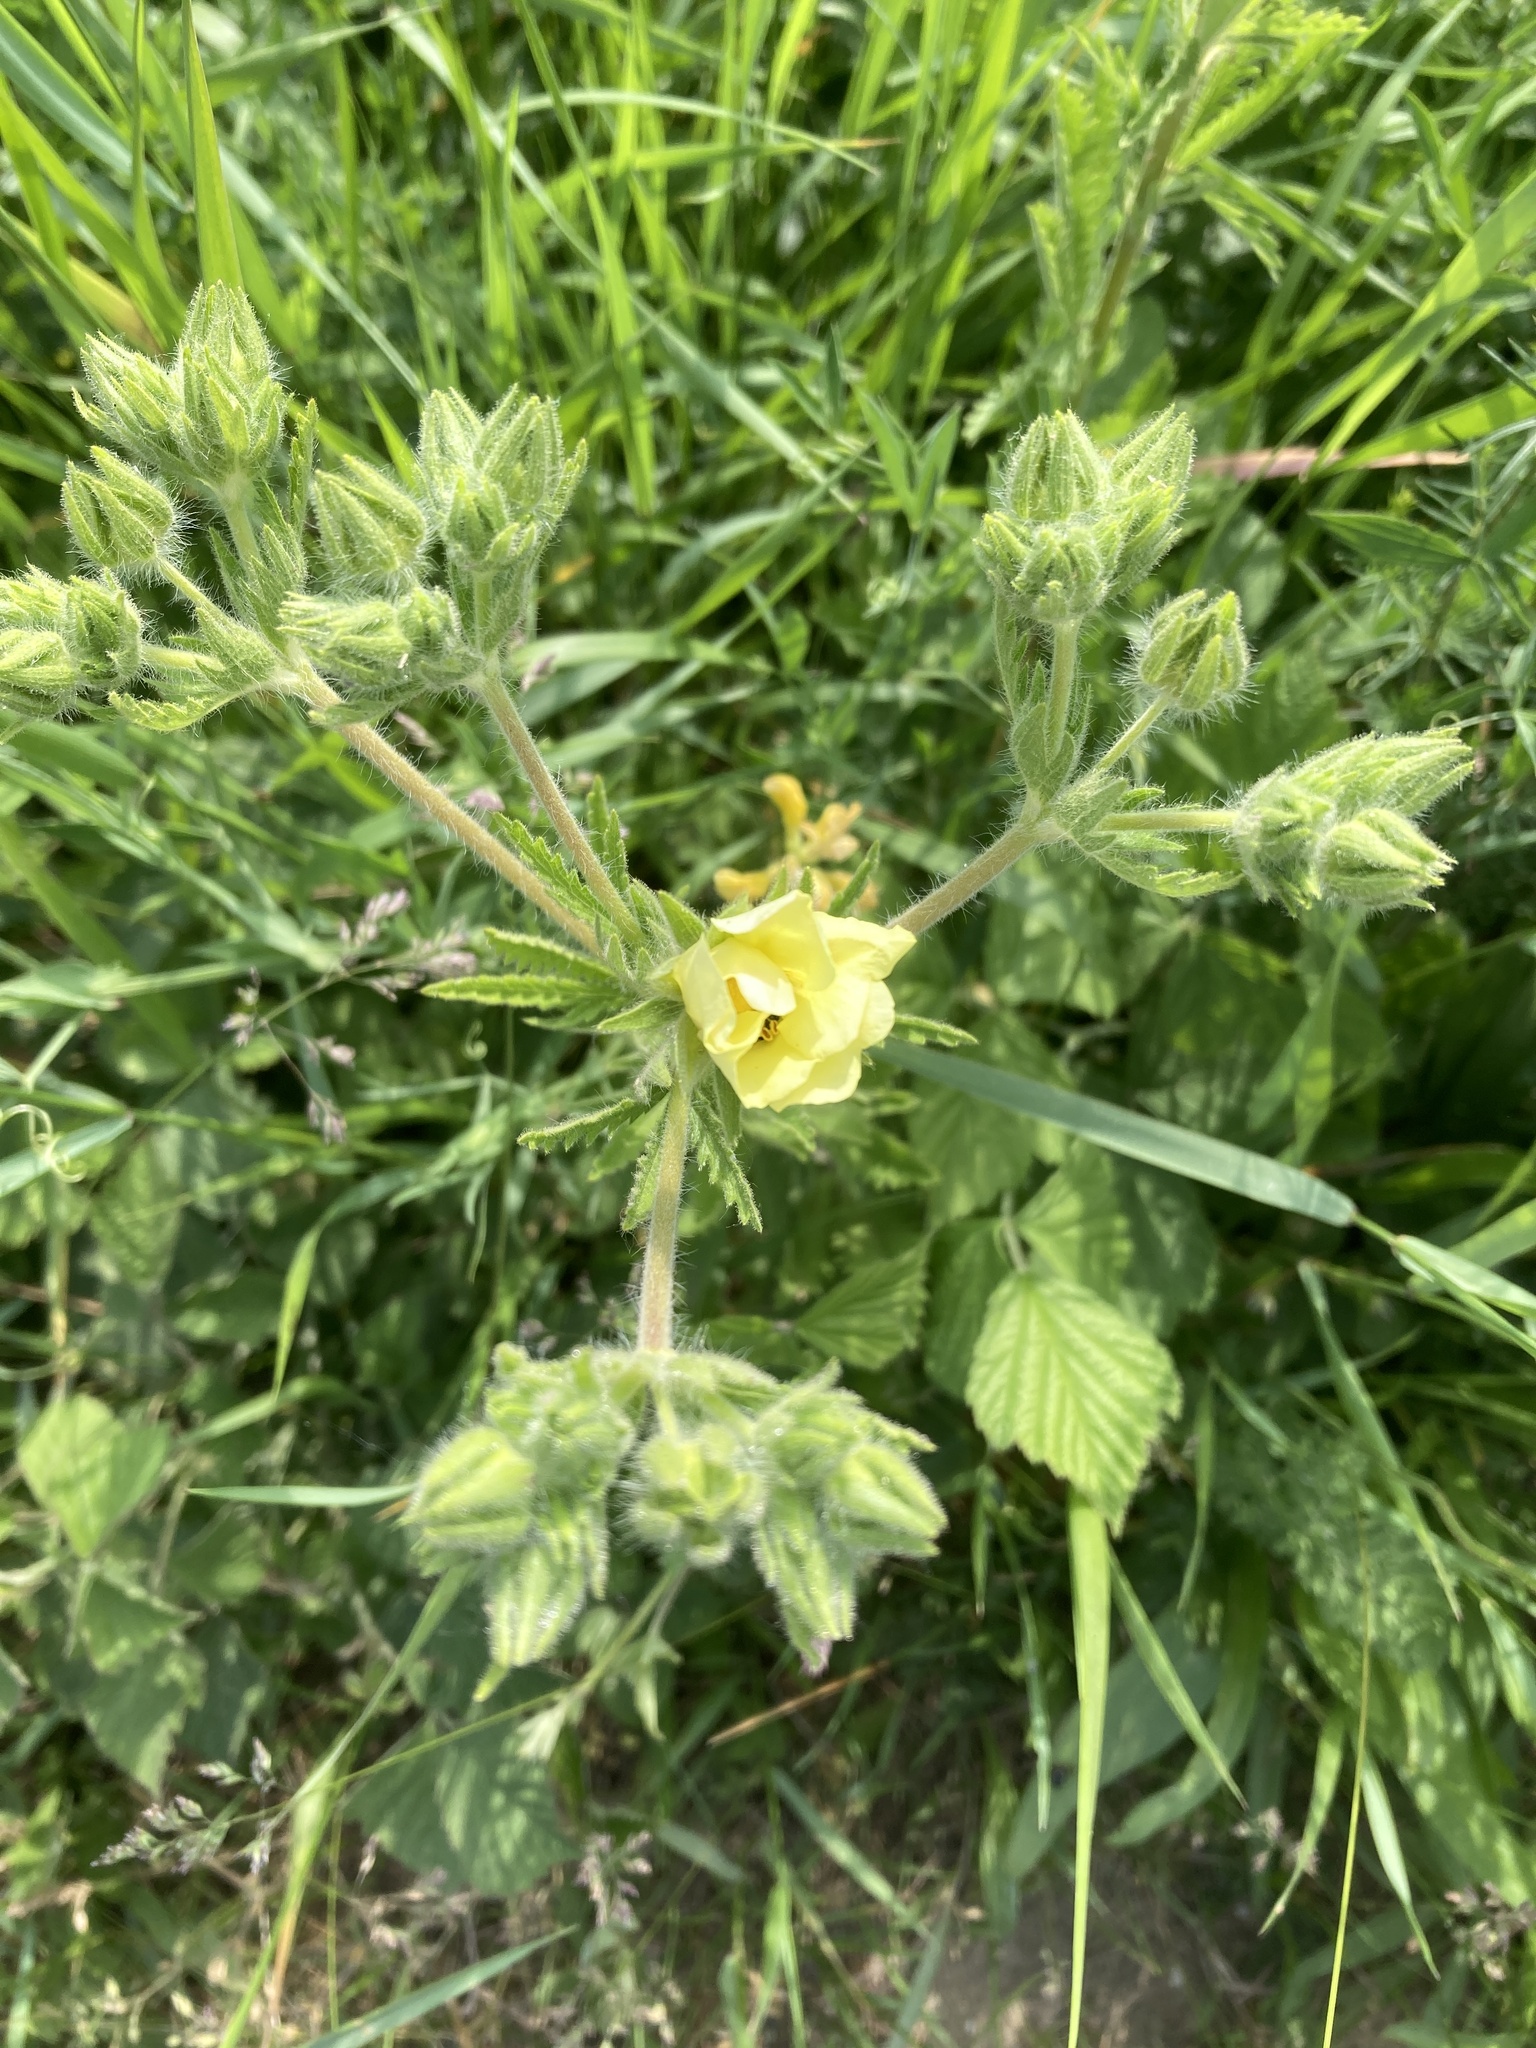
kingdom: Plantae
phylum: Tracheophyta
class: Magnoliopsida
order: Rosales
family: Rosaceae
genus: Potentilla
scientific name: Potentilla recta
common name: Sulphur cinquefoil
